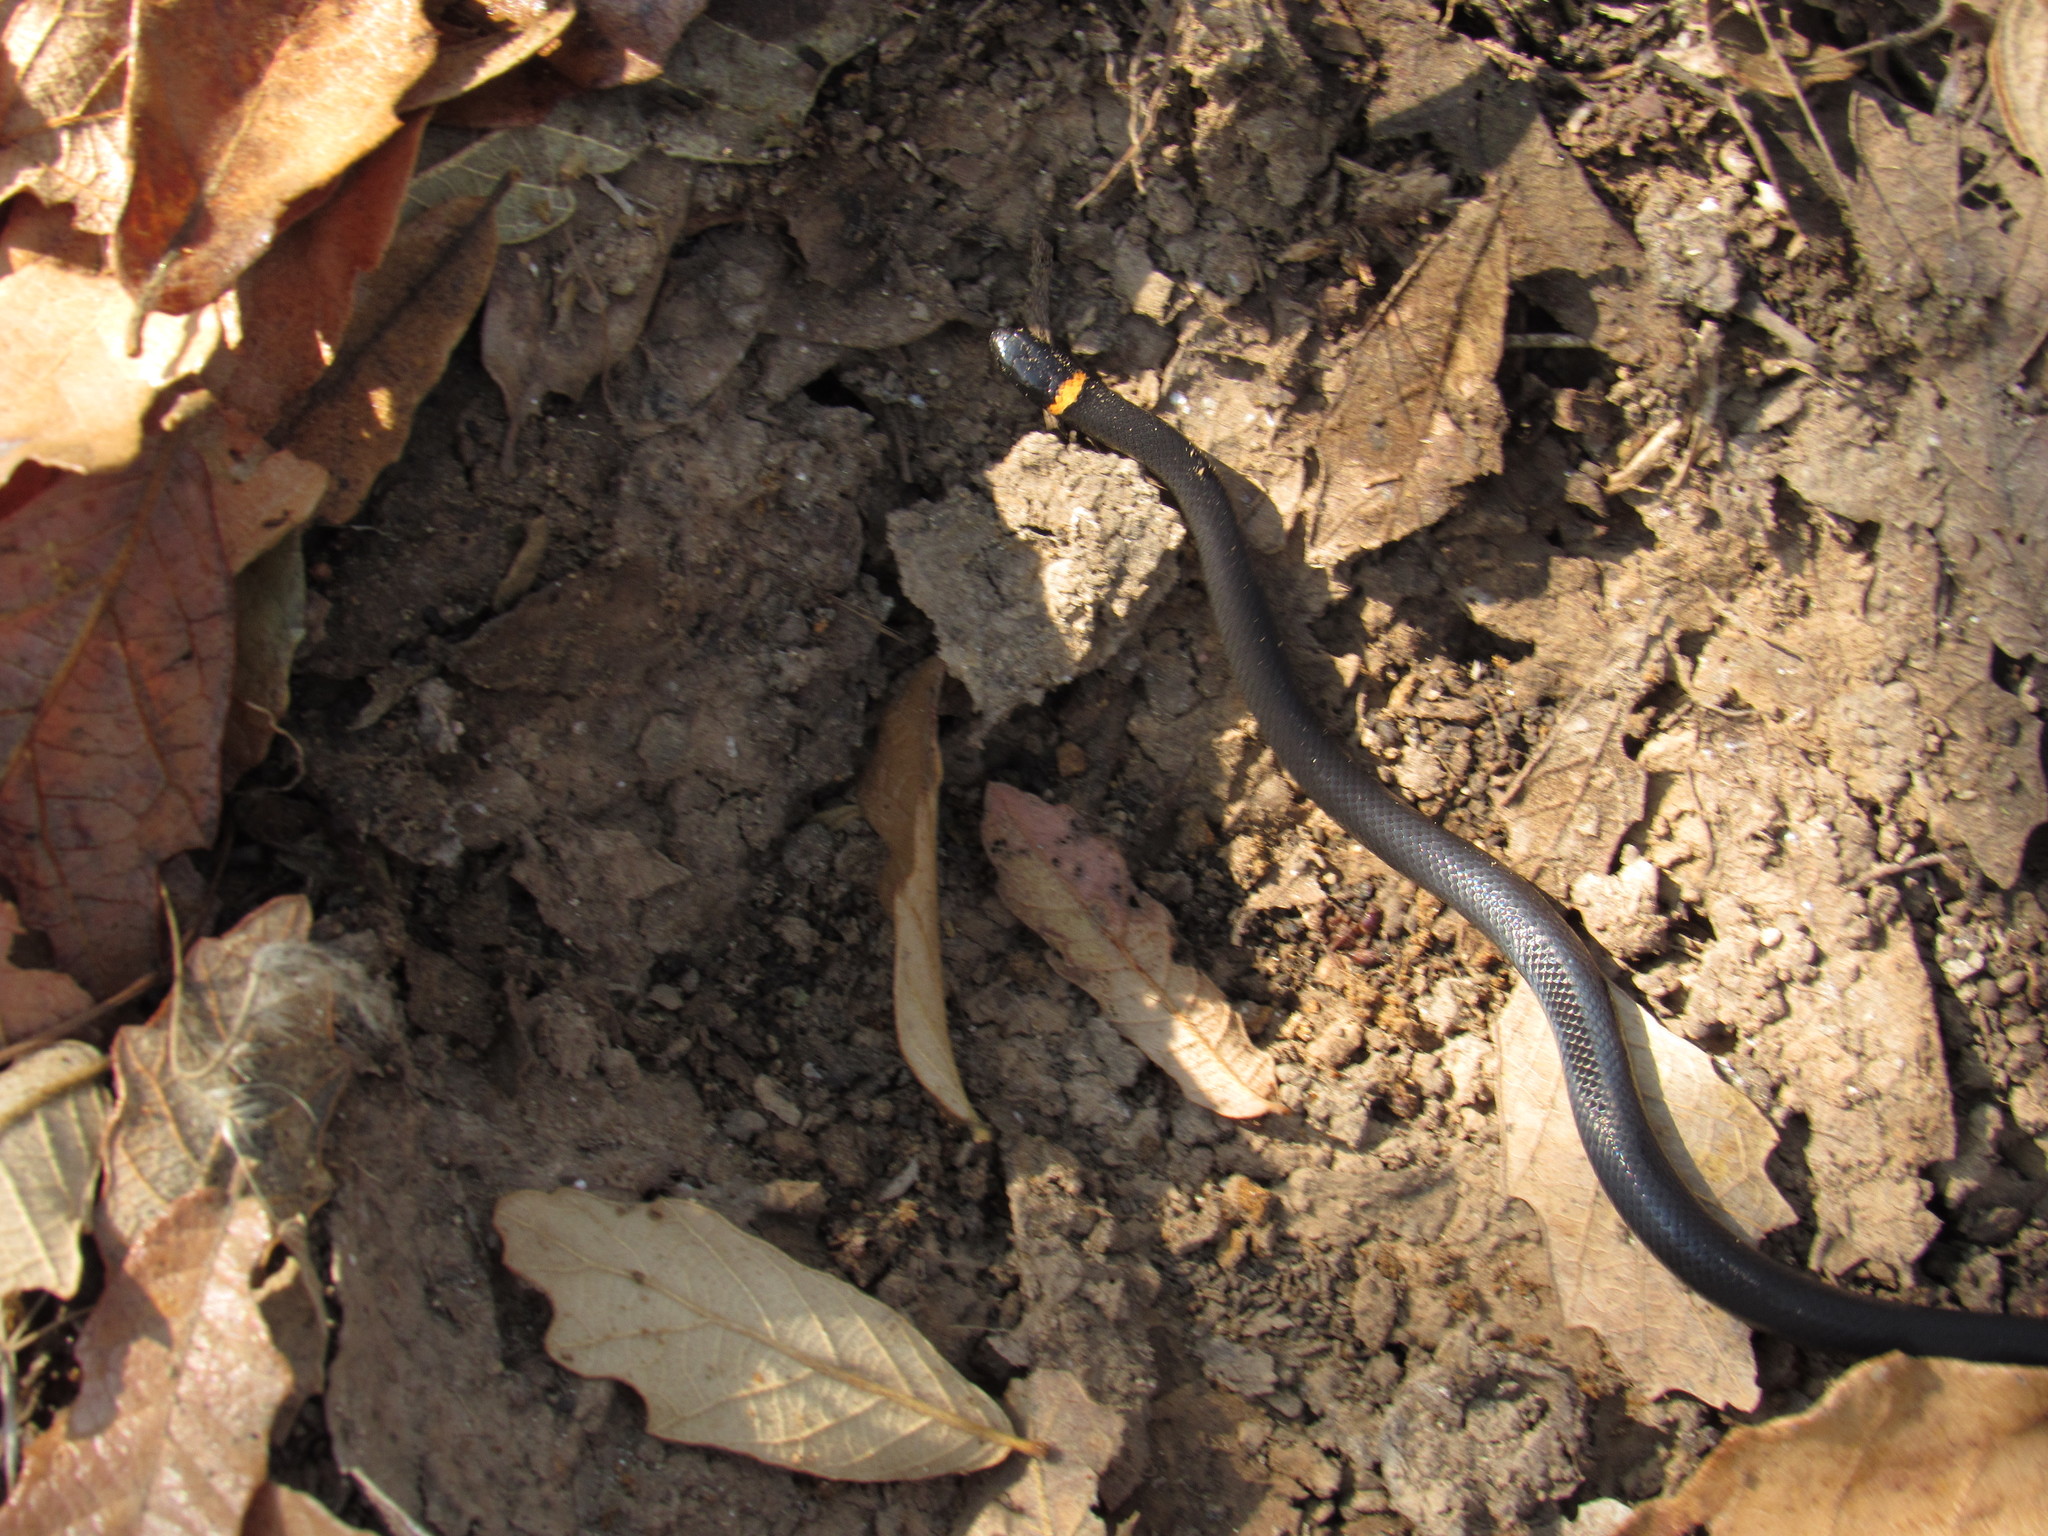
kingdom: Animalia
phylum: Chordata
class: Squamata
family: Colubridae
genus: Diadophis
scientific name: Diadophis punctatus
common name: Ringneck snake
